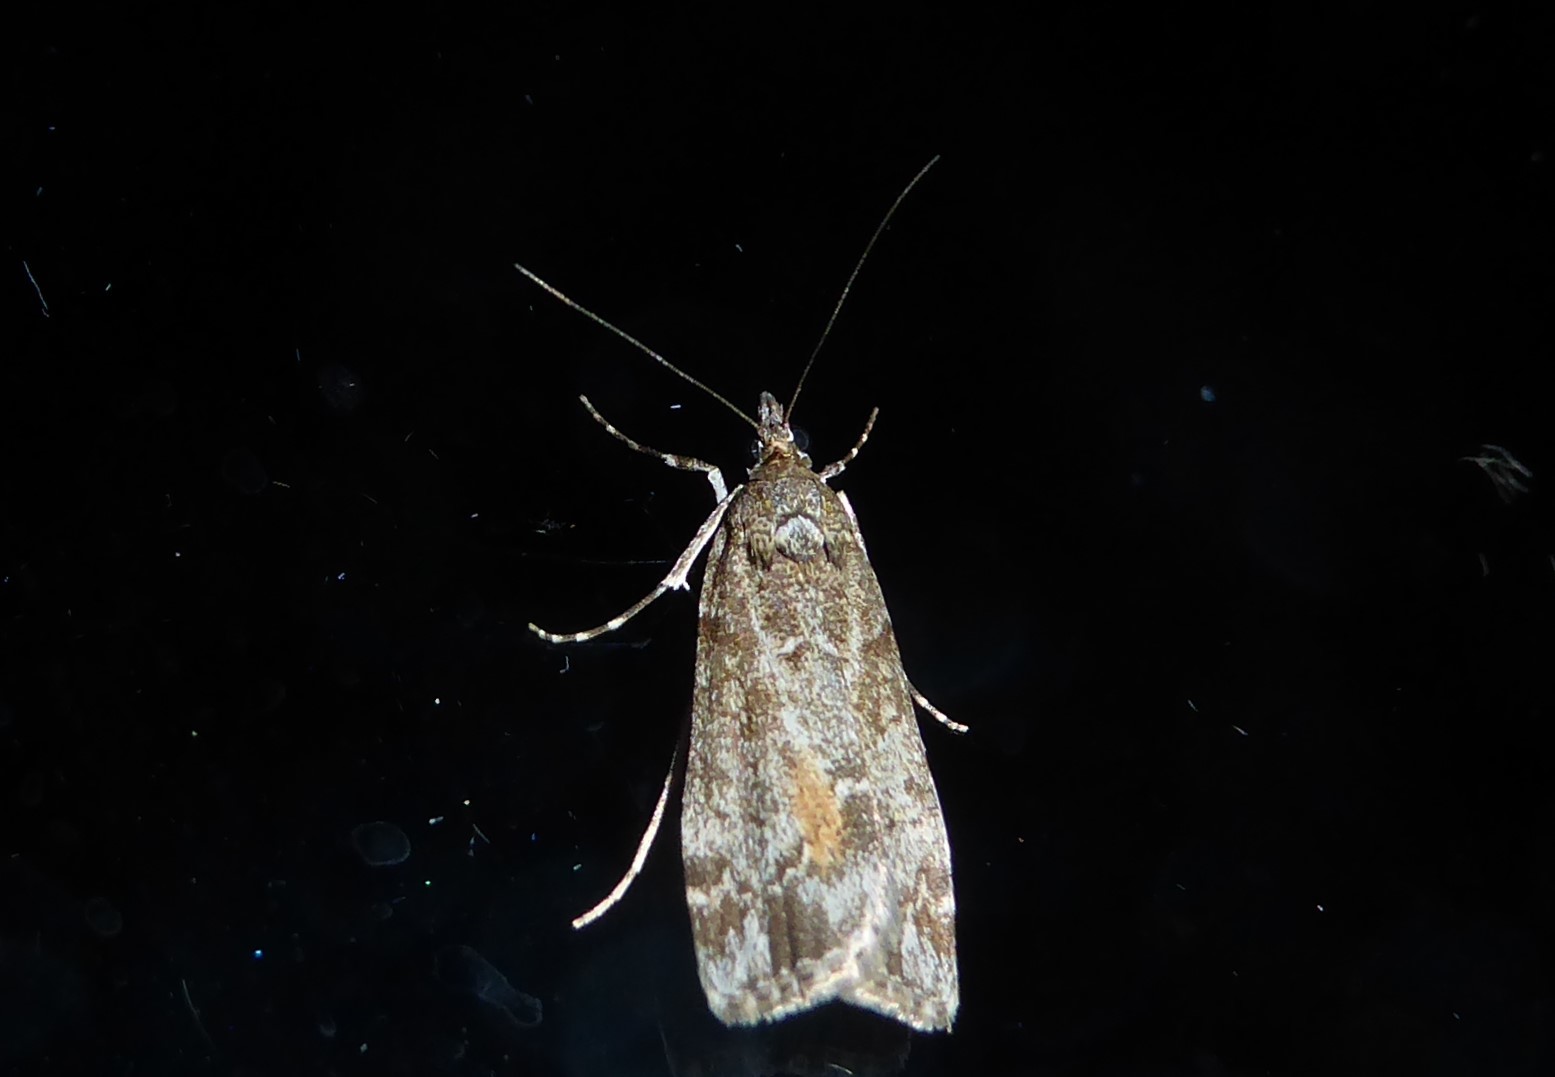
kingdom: Animalia
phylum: Arthropoda
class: Insecta
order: Lepidoptera
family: Crambidae
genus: Eudonia
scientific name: Eudonia submarginalis
